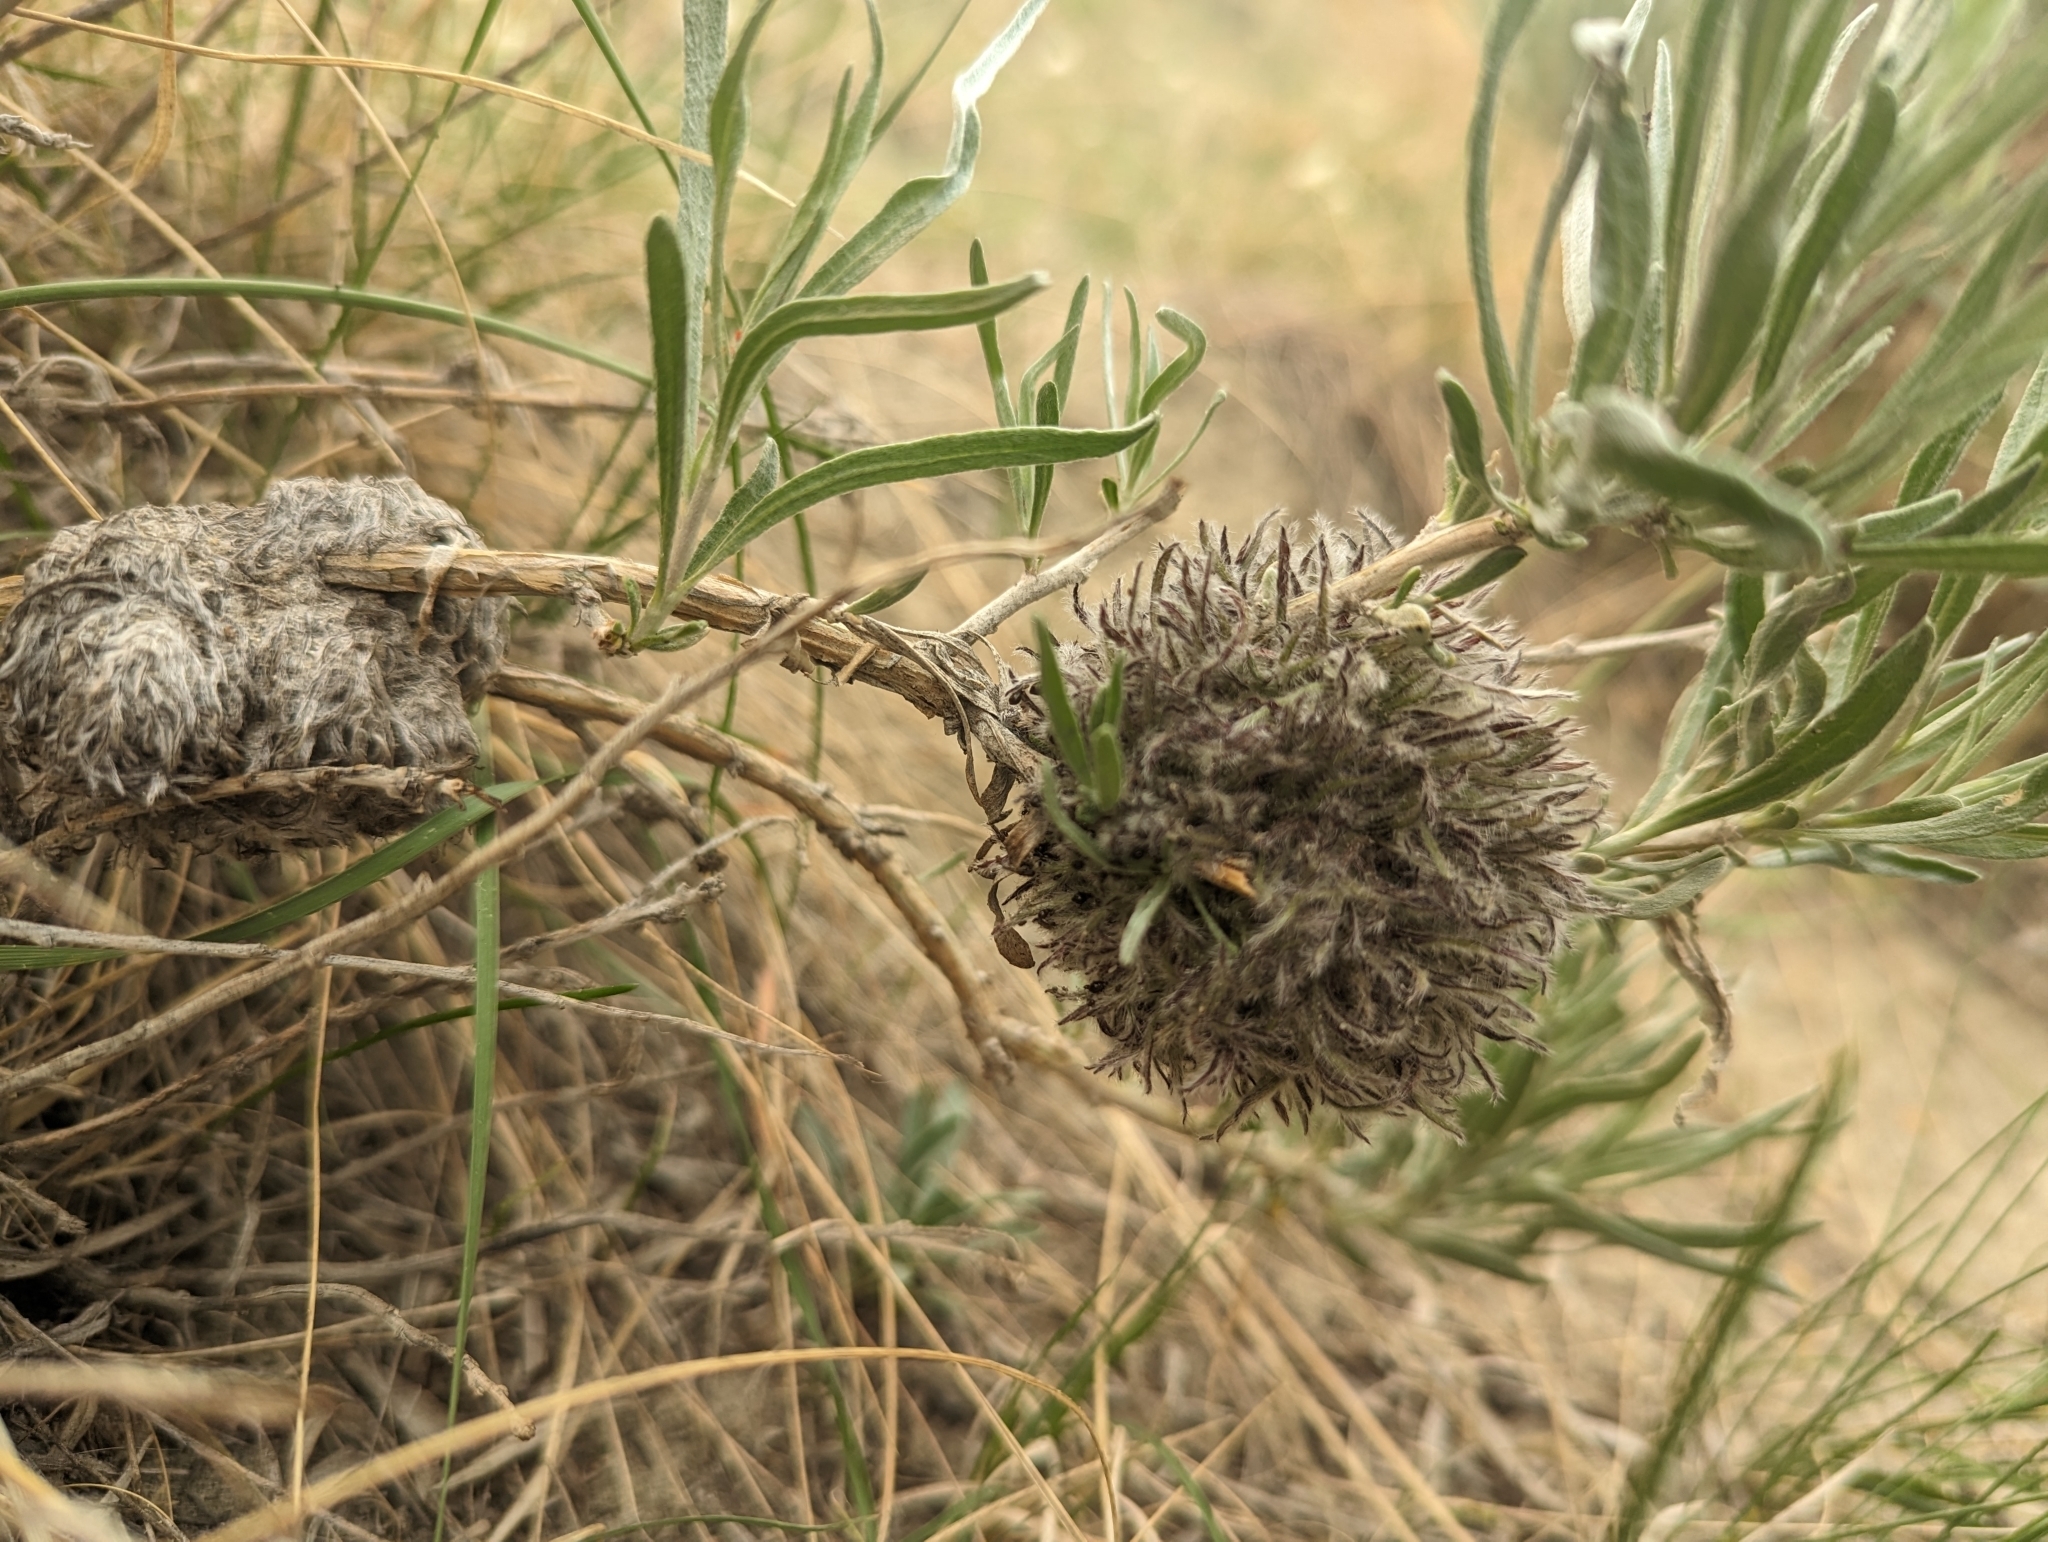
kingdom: Animalia
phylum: Arthropoda
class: Insecta
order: Diptera
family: Cecidomyiidae
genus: Rhopalomyia
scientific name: Rhopalomyia medusirrasa
